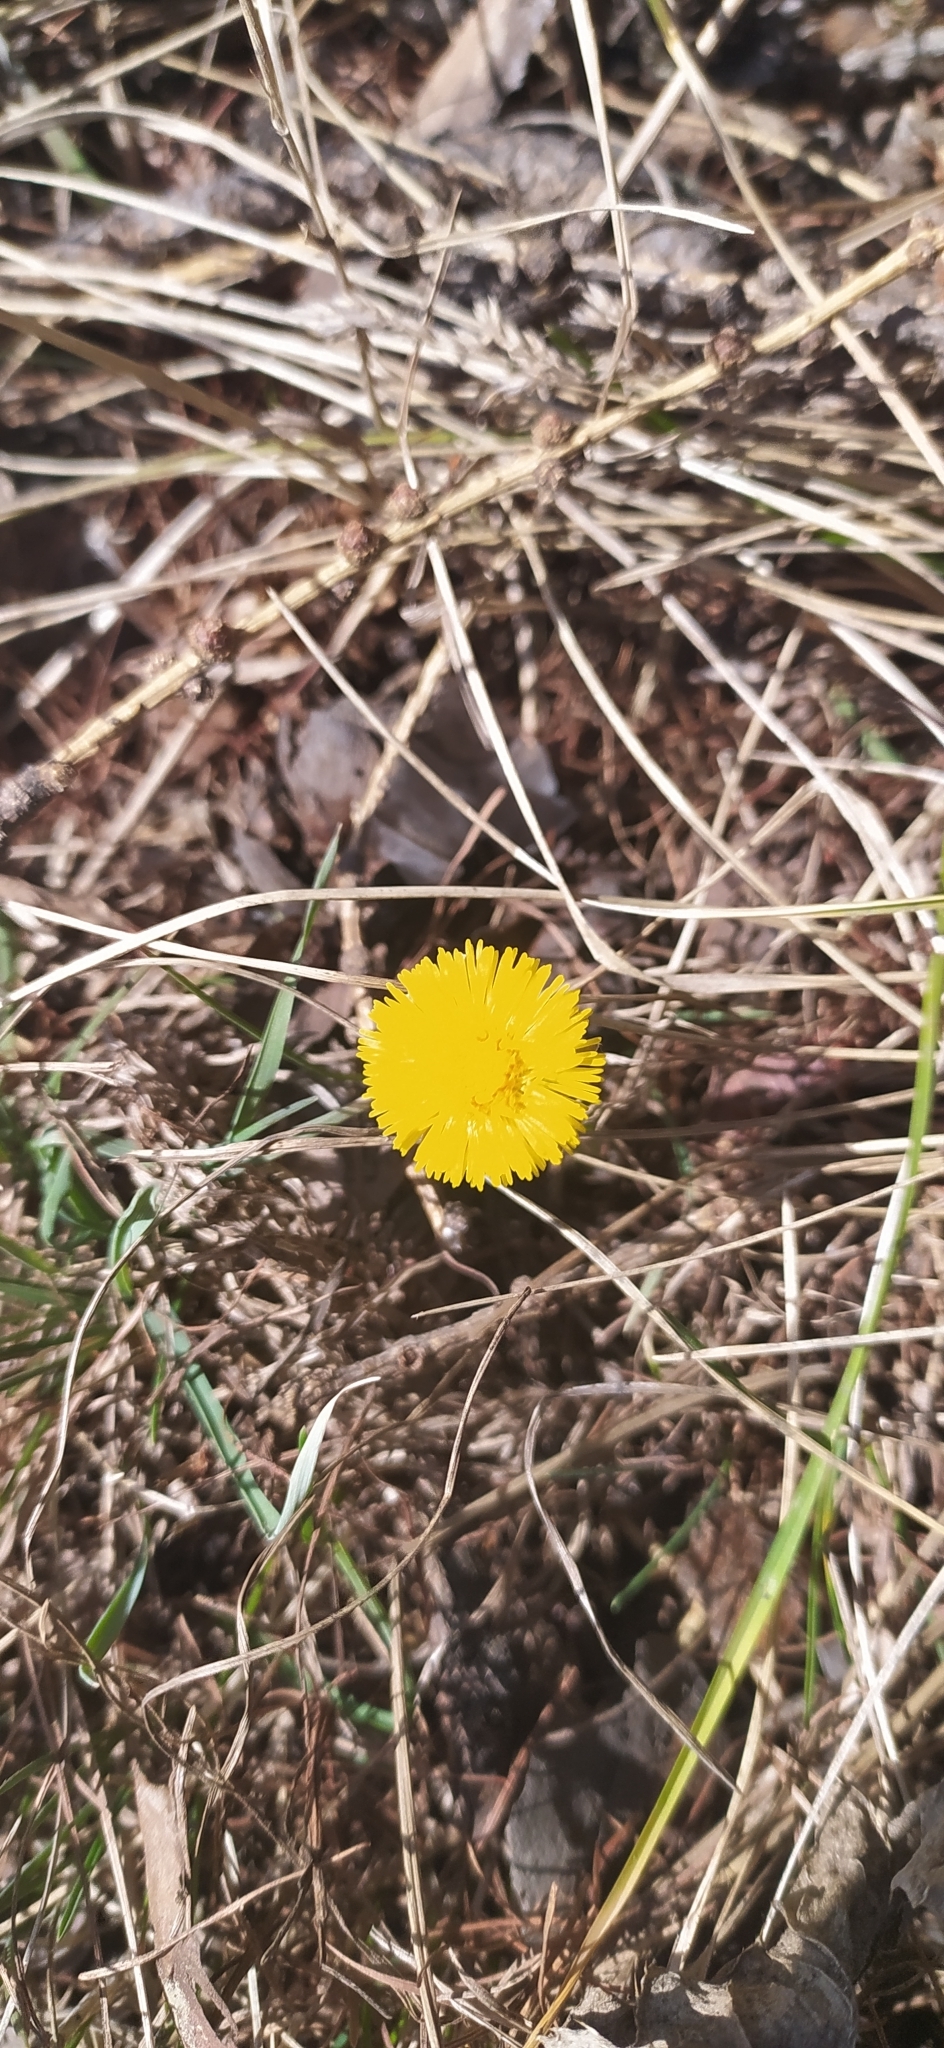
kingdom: Plantae
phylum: Tracheophyta
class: Magnoliopsida
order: Asterales
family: Asteraceae
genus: Tussilago
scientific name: Tussilago farfara
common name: Coltsfoot
